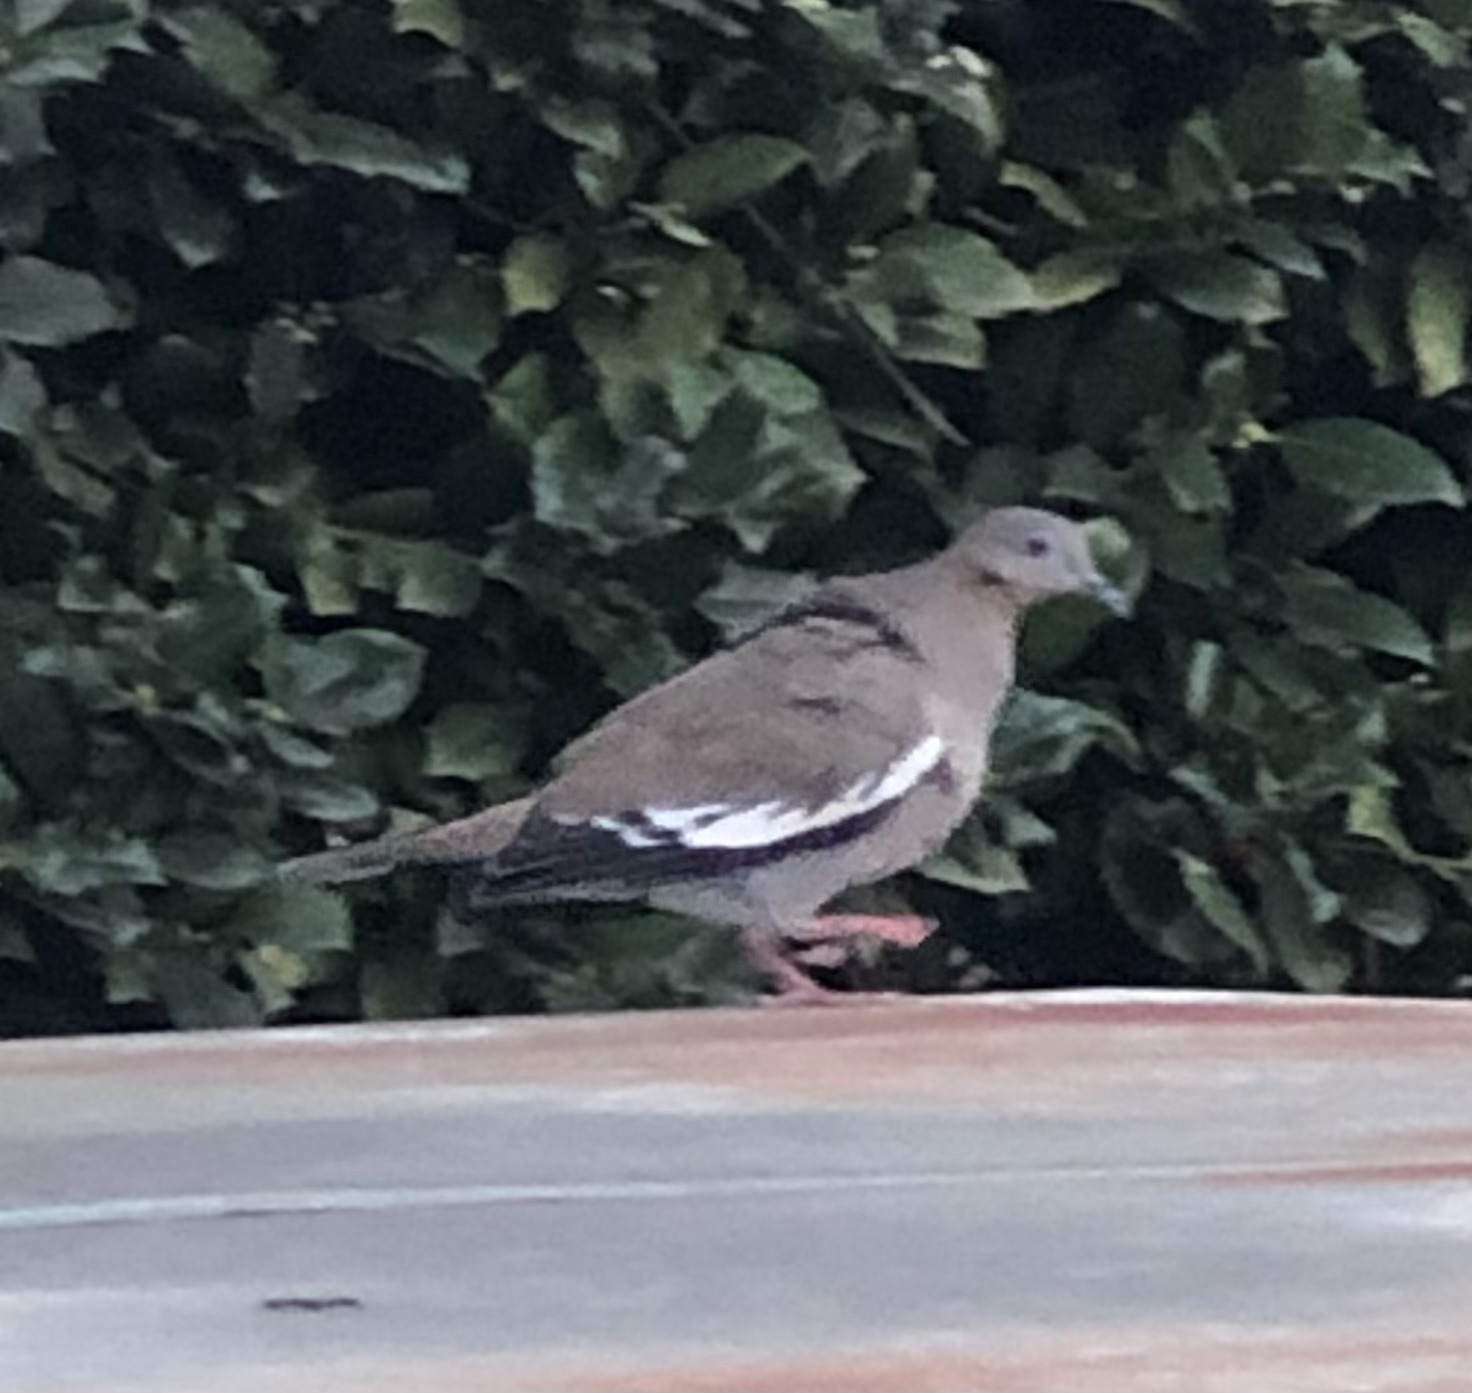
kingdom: Animalia
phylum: Chordata
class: Aves
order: Columbiformes
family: Columbidae
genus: Zenaida
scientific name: Zenaida asiatica
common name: White-winged dove
